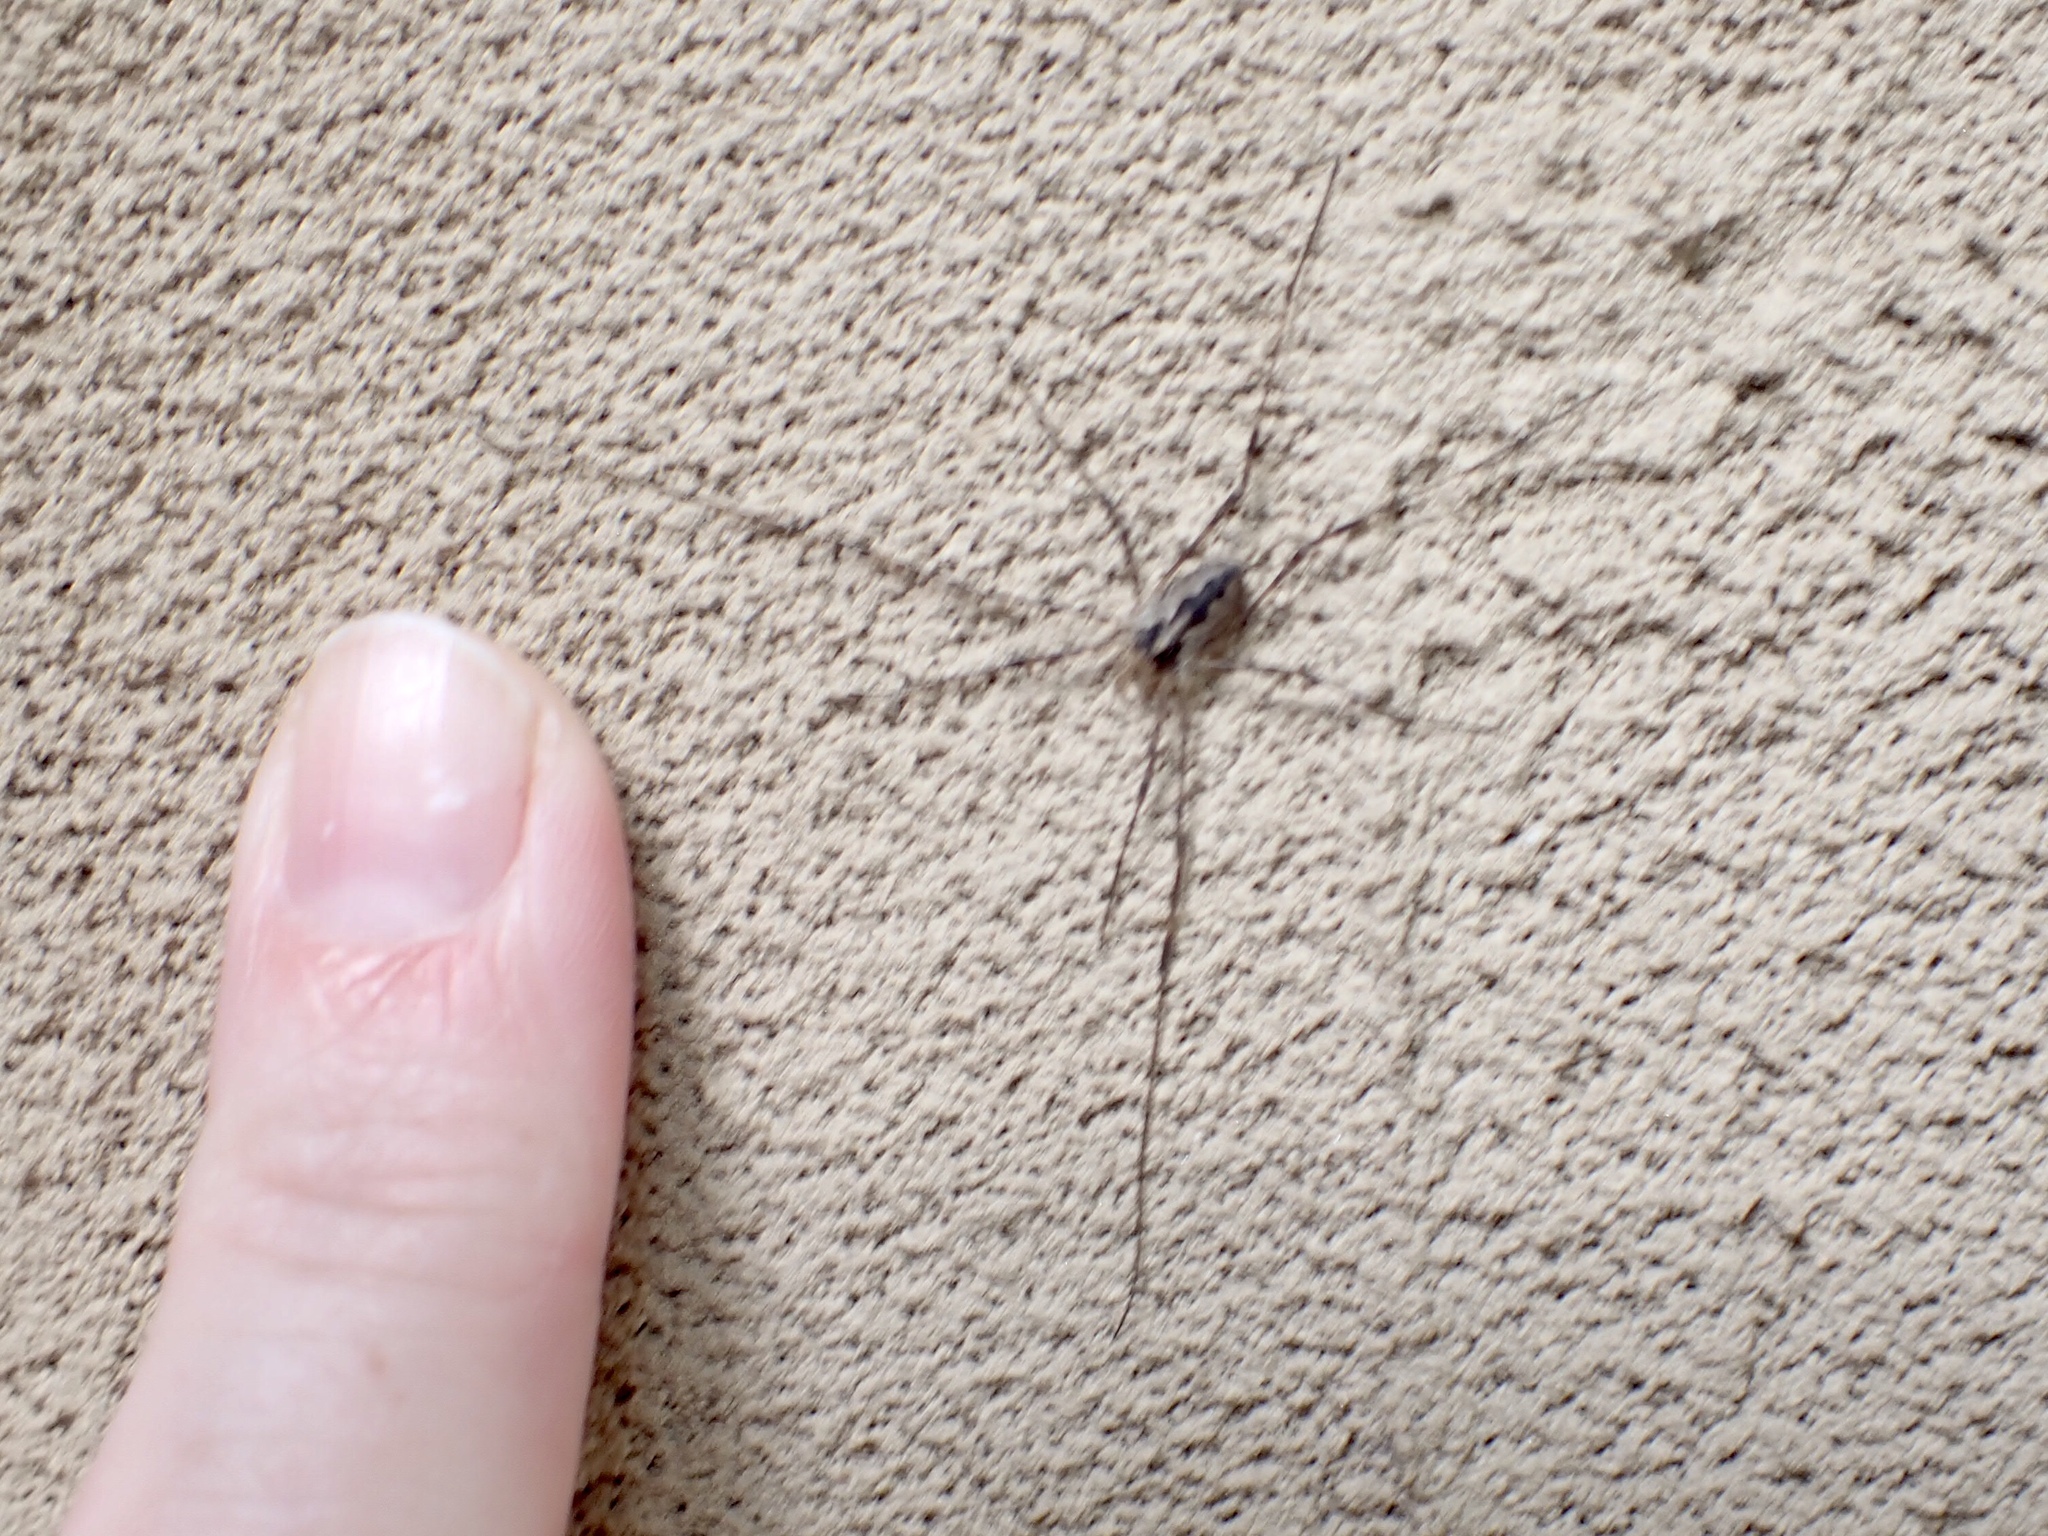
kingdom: Animalia
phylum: Arthropoda
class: Arachnida
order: Opiliones
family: Phalangiidae
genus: Odiellus
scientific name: Odiellus pictus
